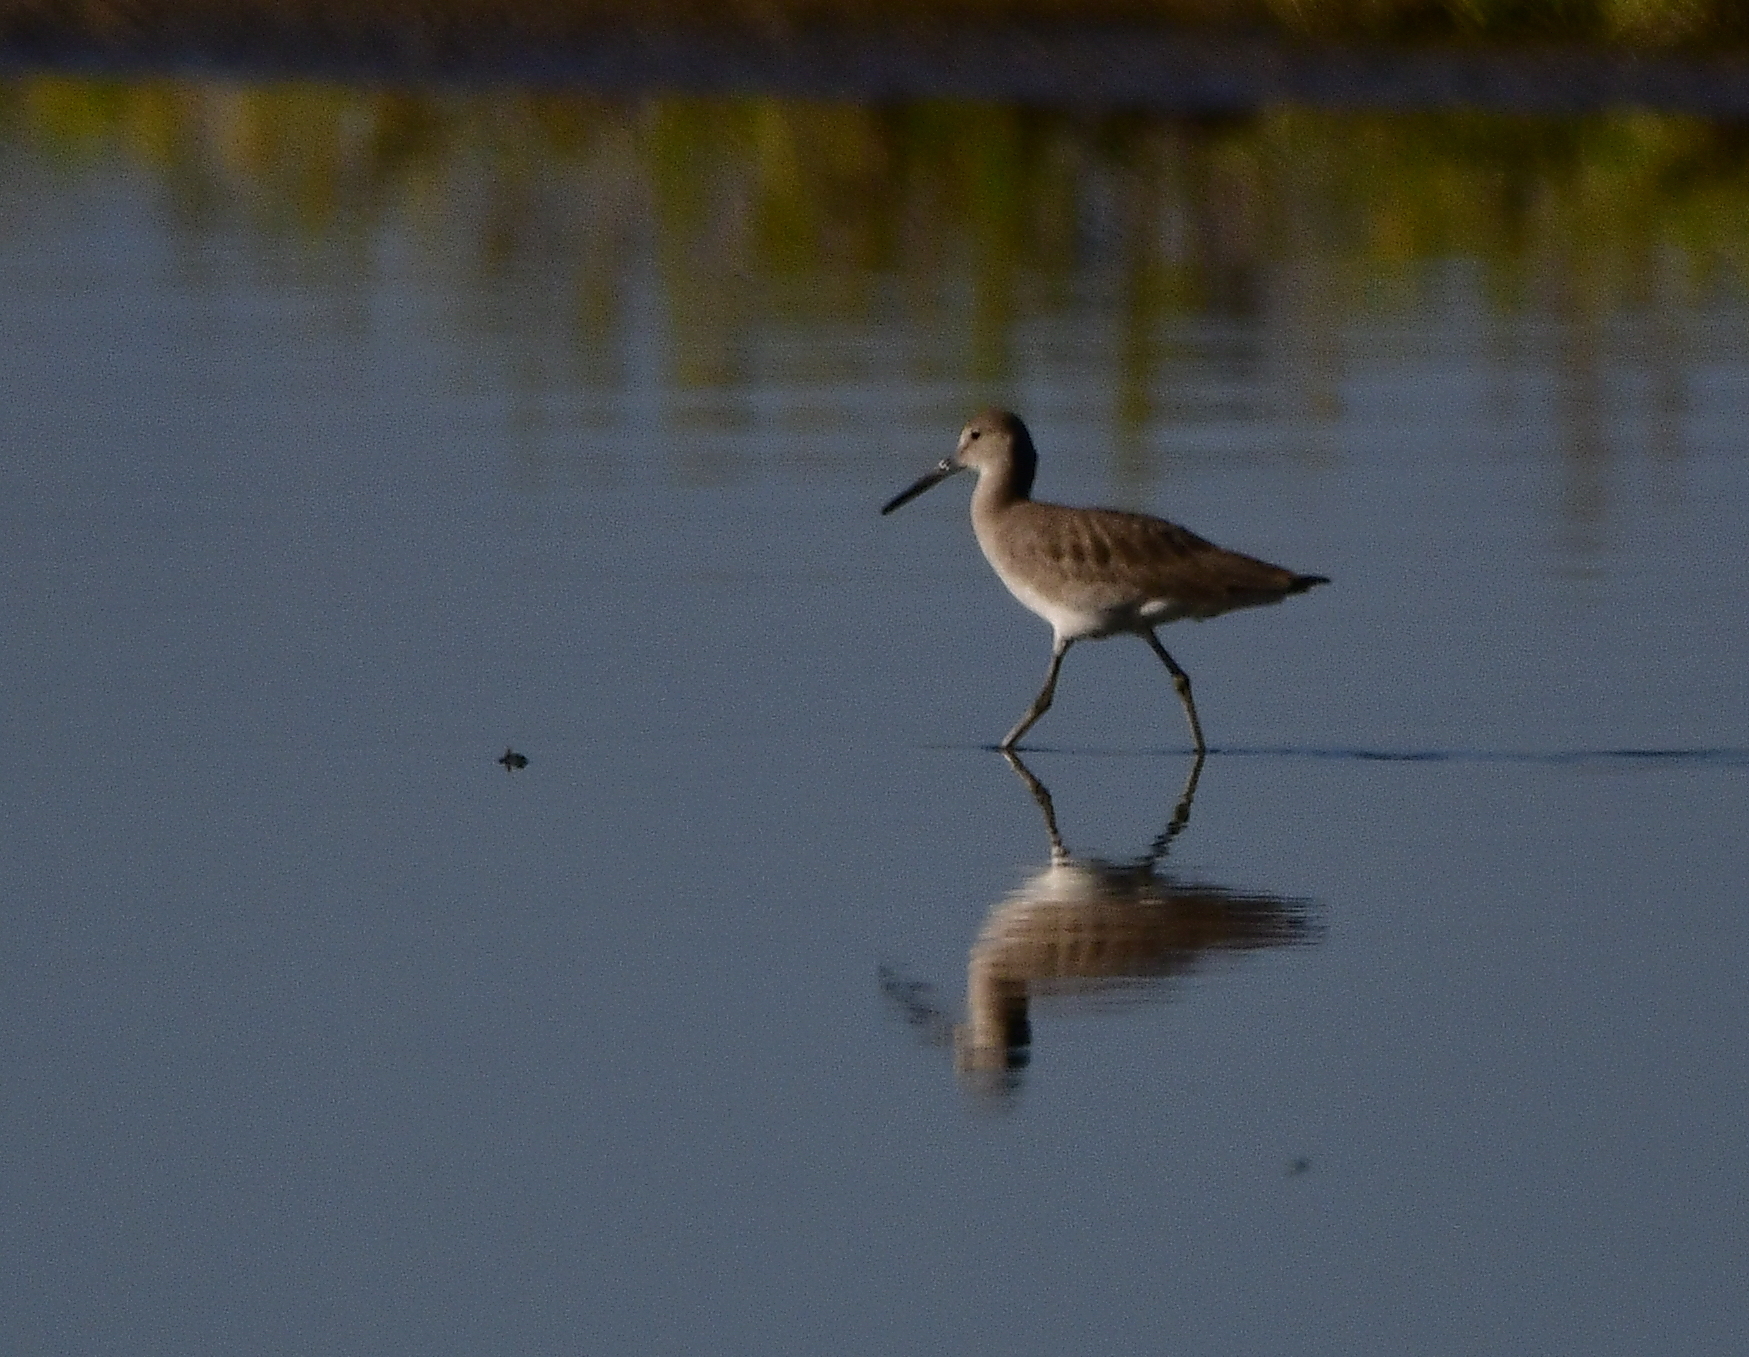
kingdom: Animalia
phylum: Chordata
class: Aves
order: Charadriiformes
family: Scolopacidae
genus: Tringa
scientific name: Tringa semipalmata
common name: Willet
